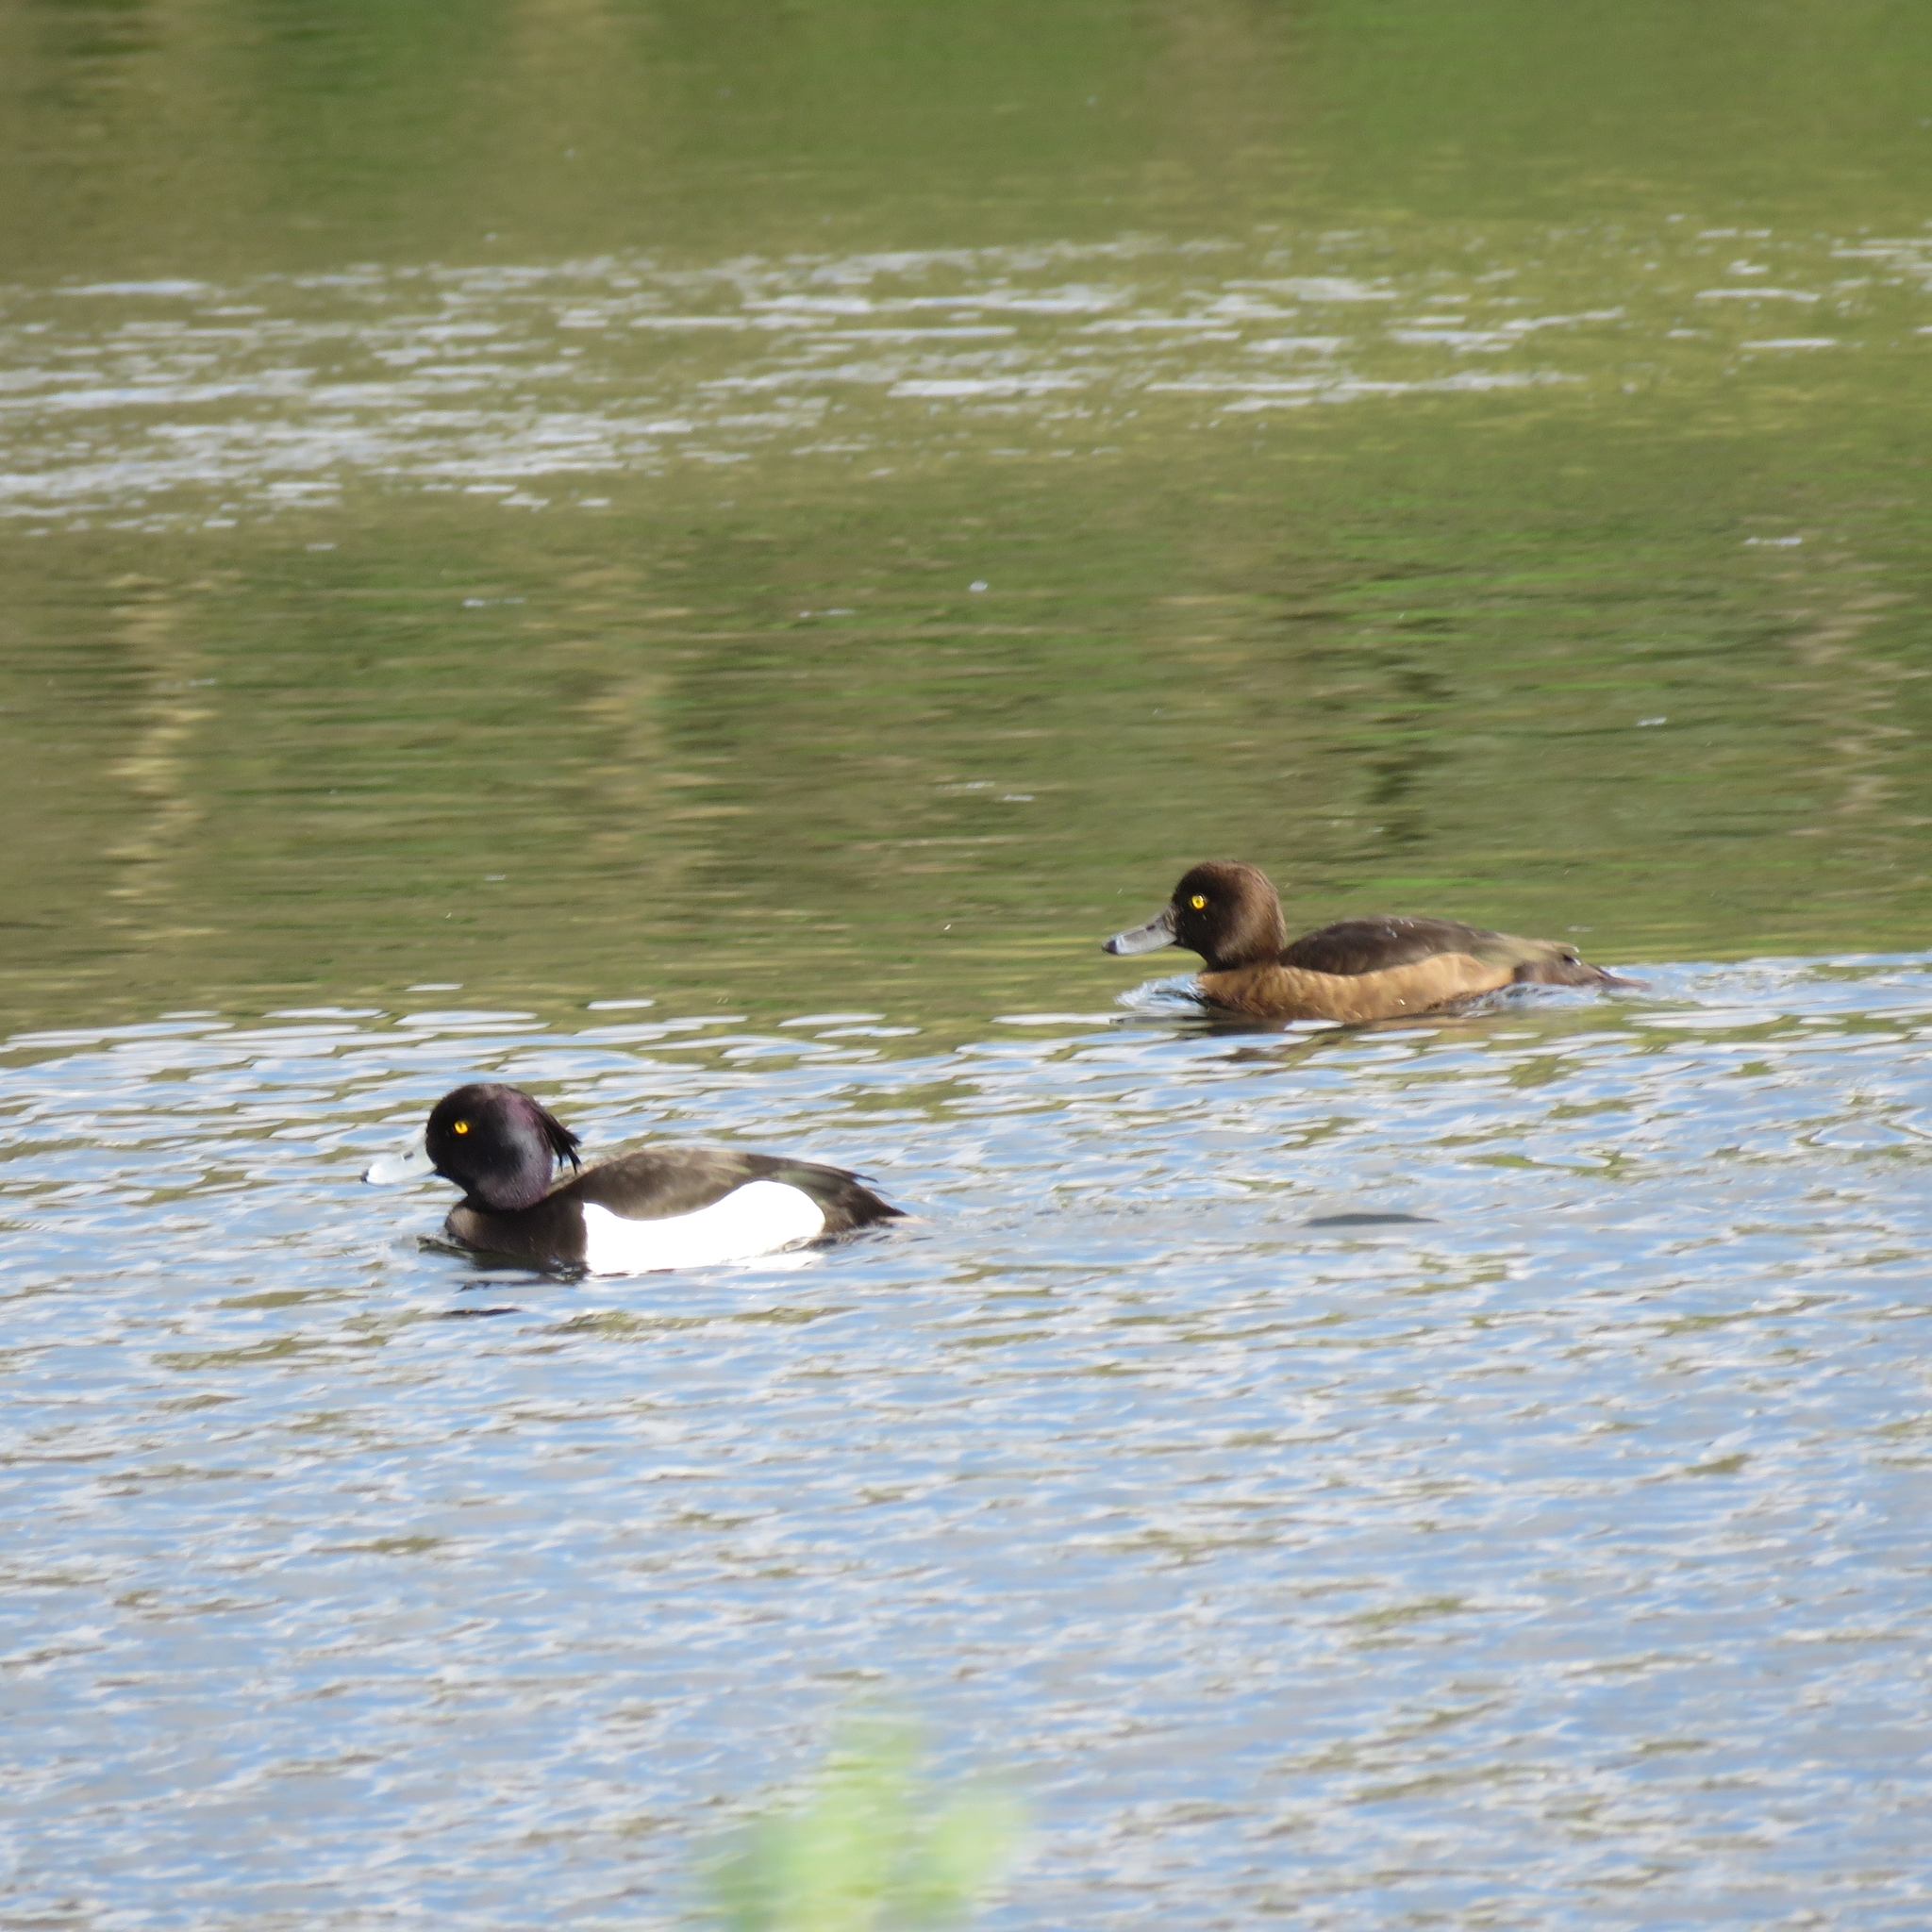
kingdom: Animalia
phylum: Chordata
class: Aves
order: Anseriformes
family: Anatidae
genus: Aythya
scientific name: Aythya fuligula
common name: Tufted duck
